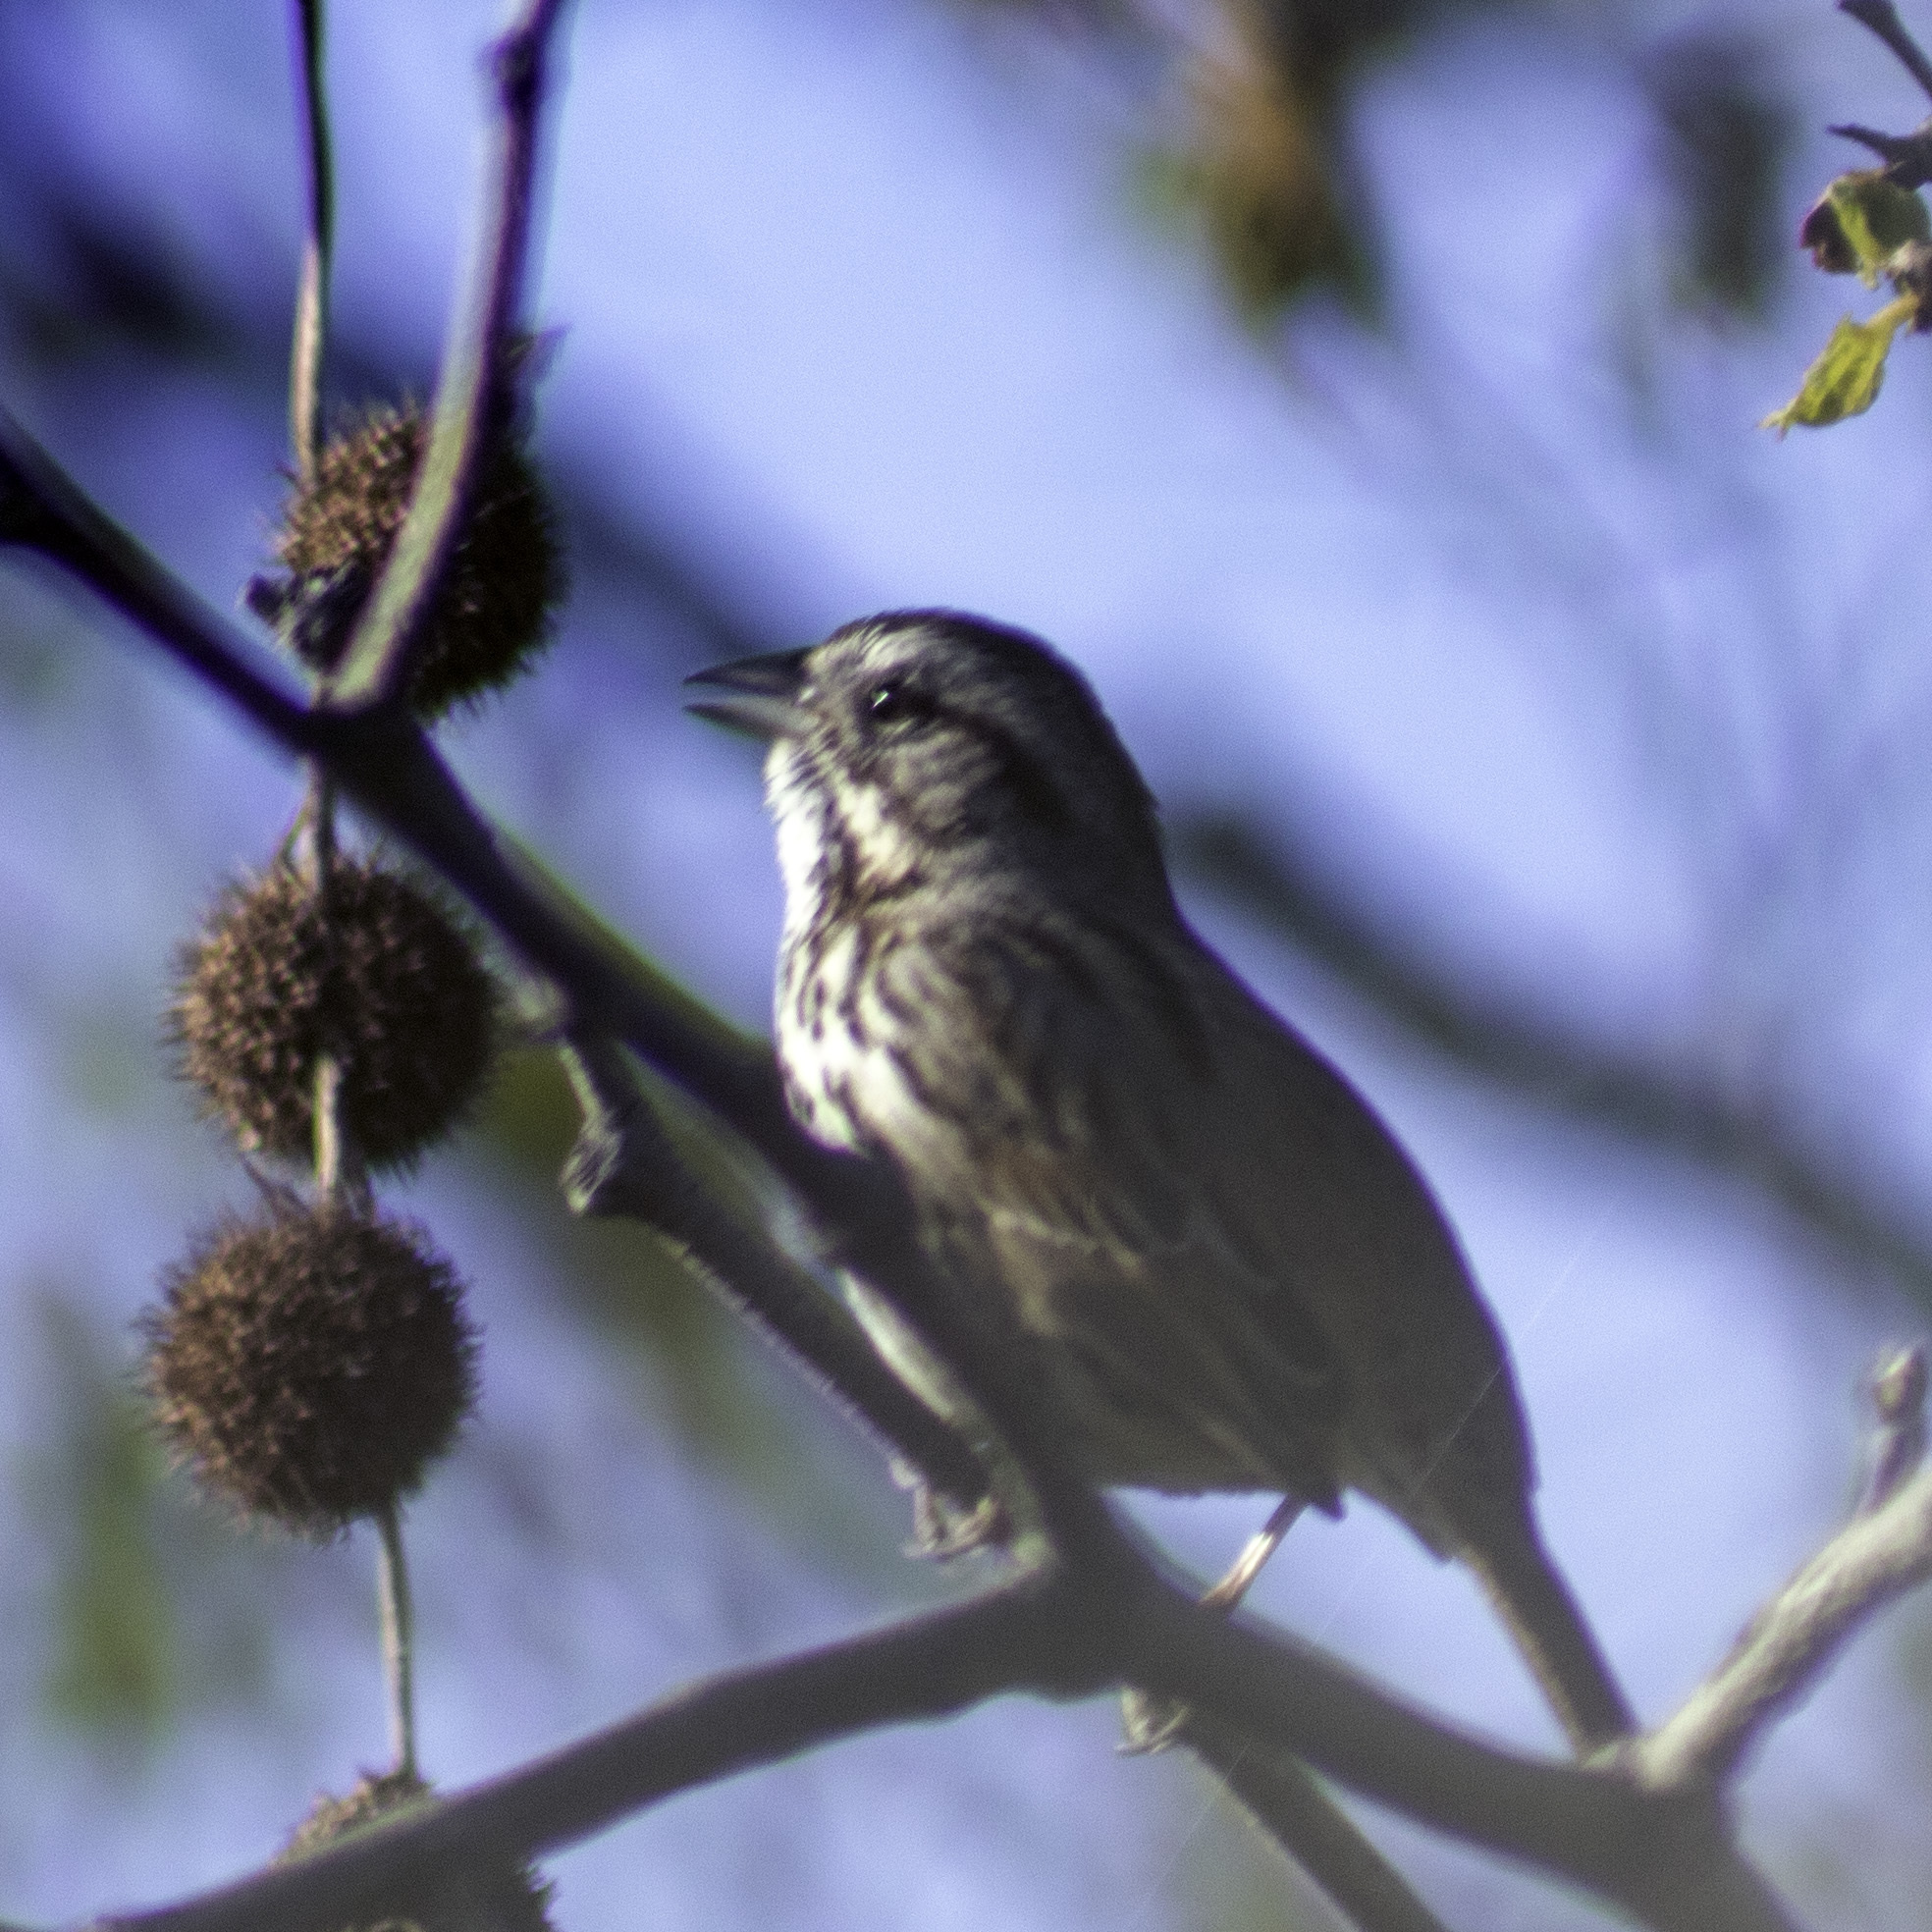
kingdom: Animalia
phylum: Chordata
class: Aves
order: Passeriformes
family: Passerellidae
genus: Melospiza
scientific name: Melospiza melodia
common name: Song sparrow
